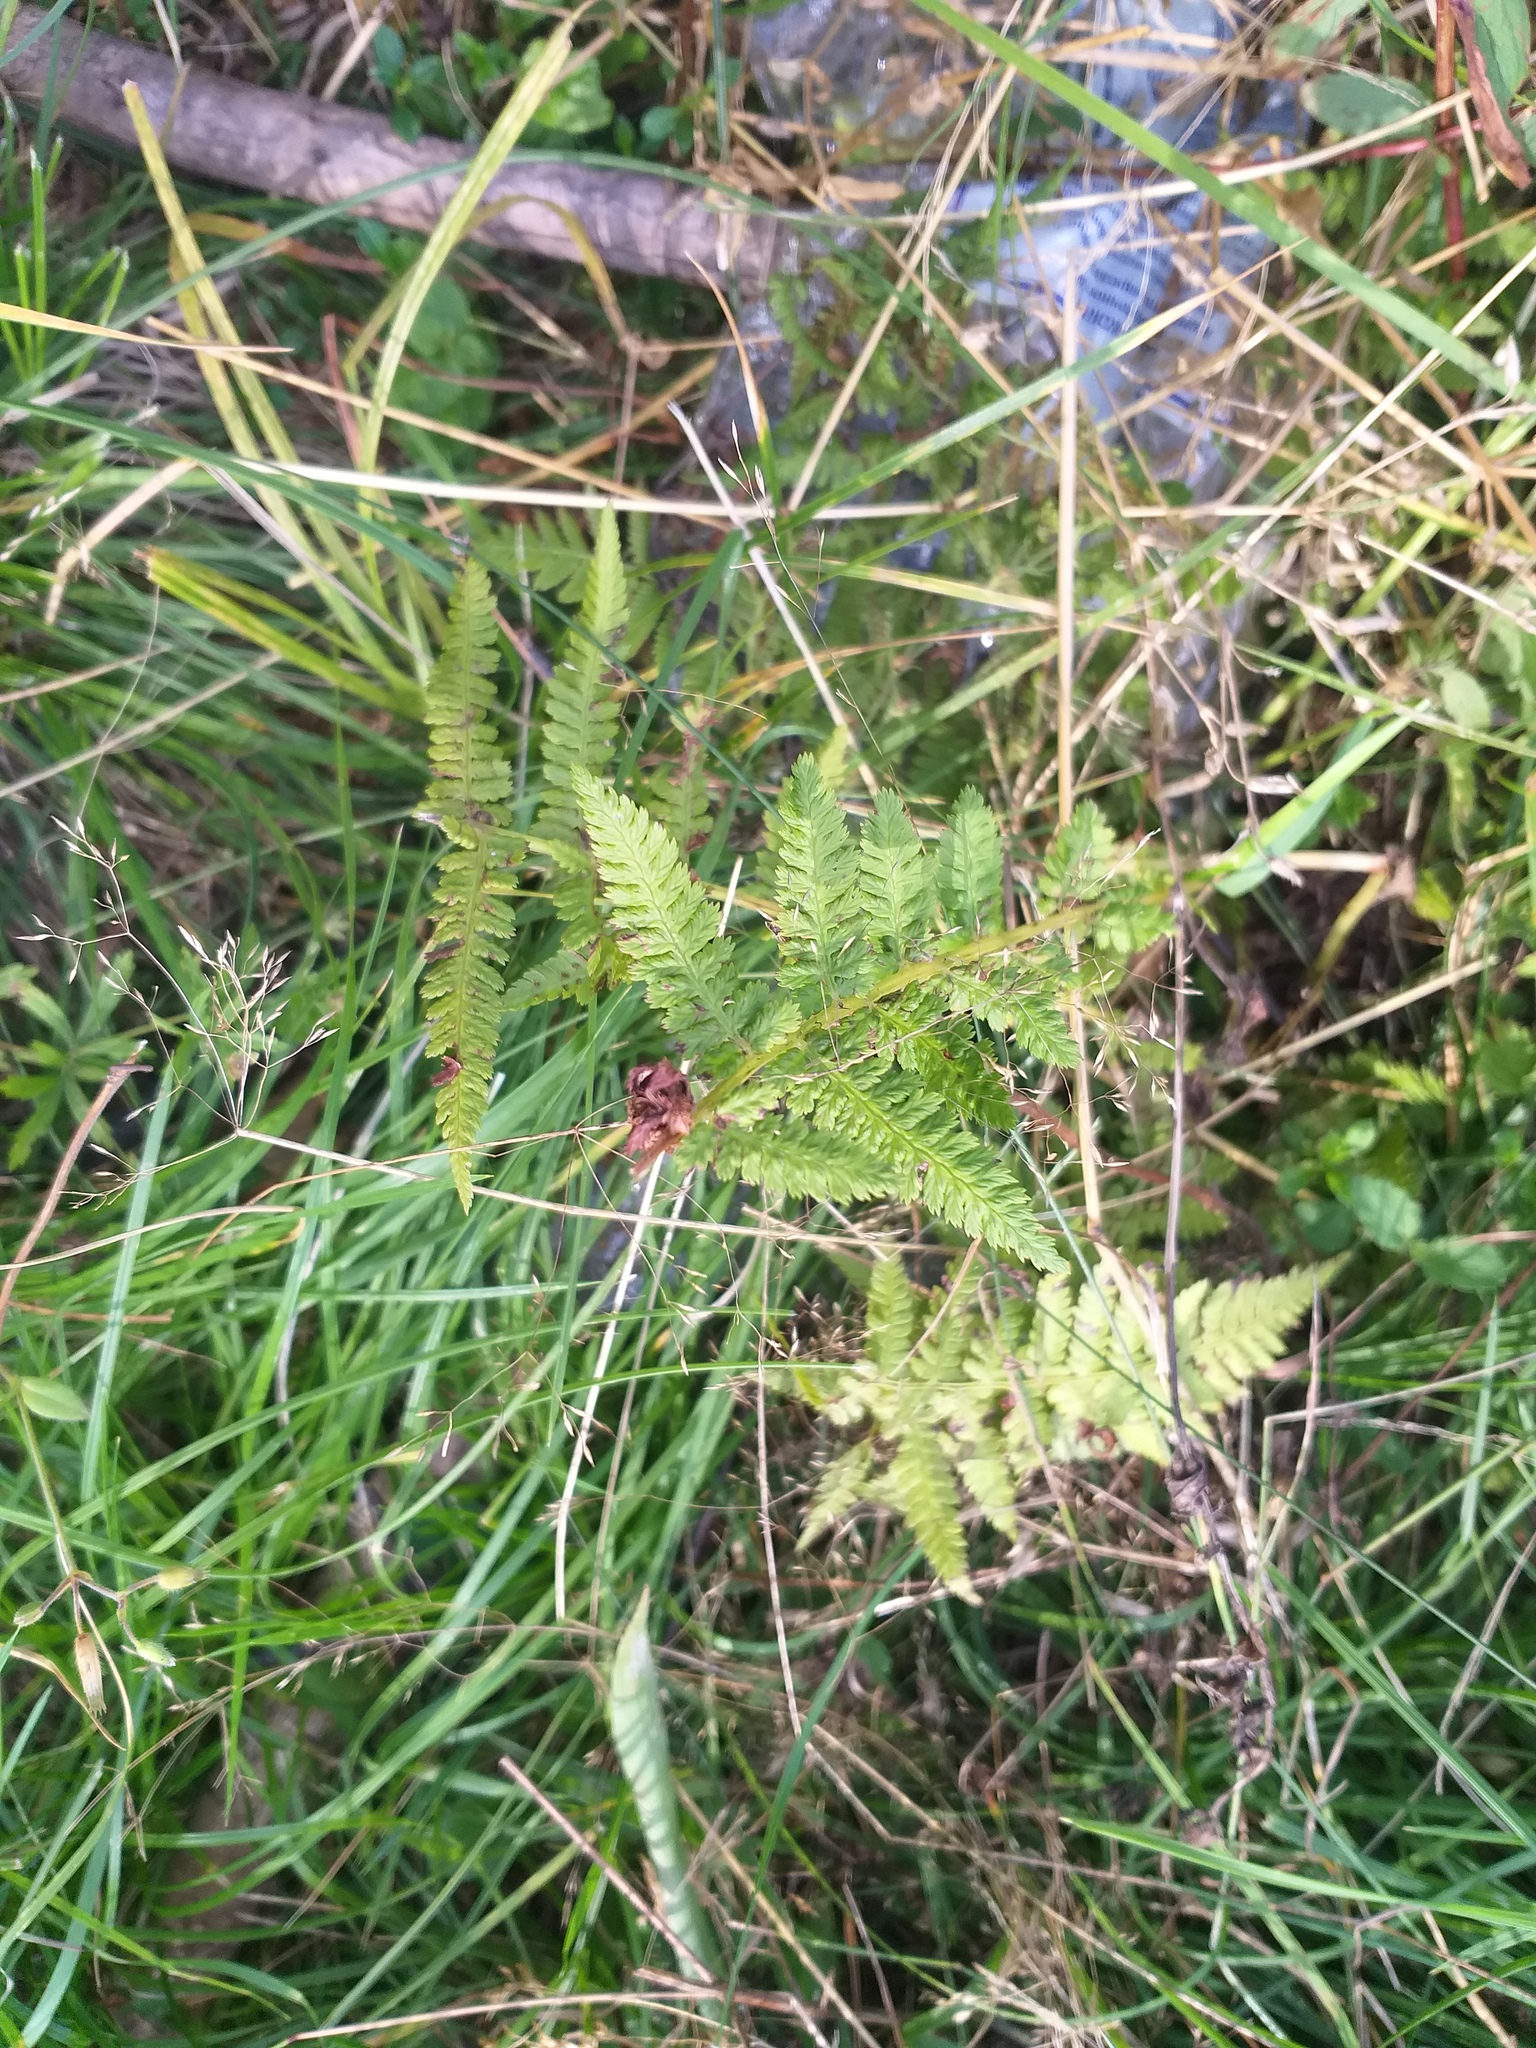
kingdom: Plantae
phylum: Tracheophyta
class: Polypodiopsida
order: Polypodiales
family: Athyriaceae
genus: Athyrium
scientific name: Athyrium filix-femina
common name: Lady fern
